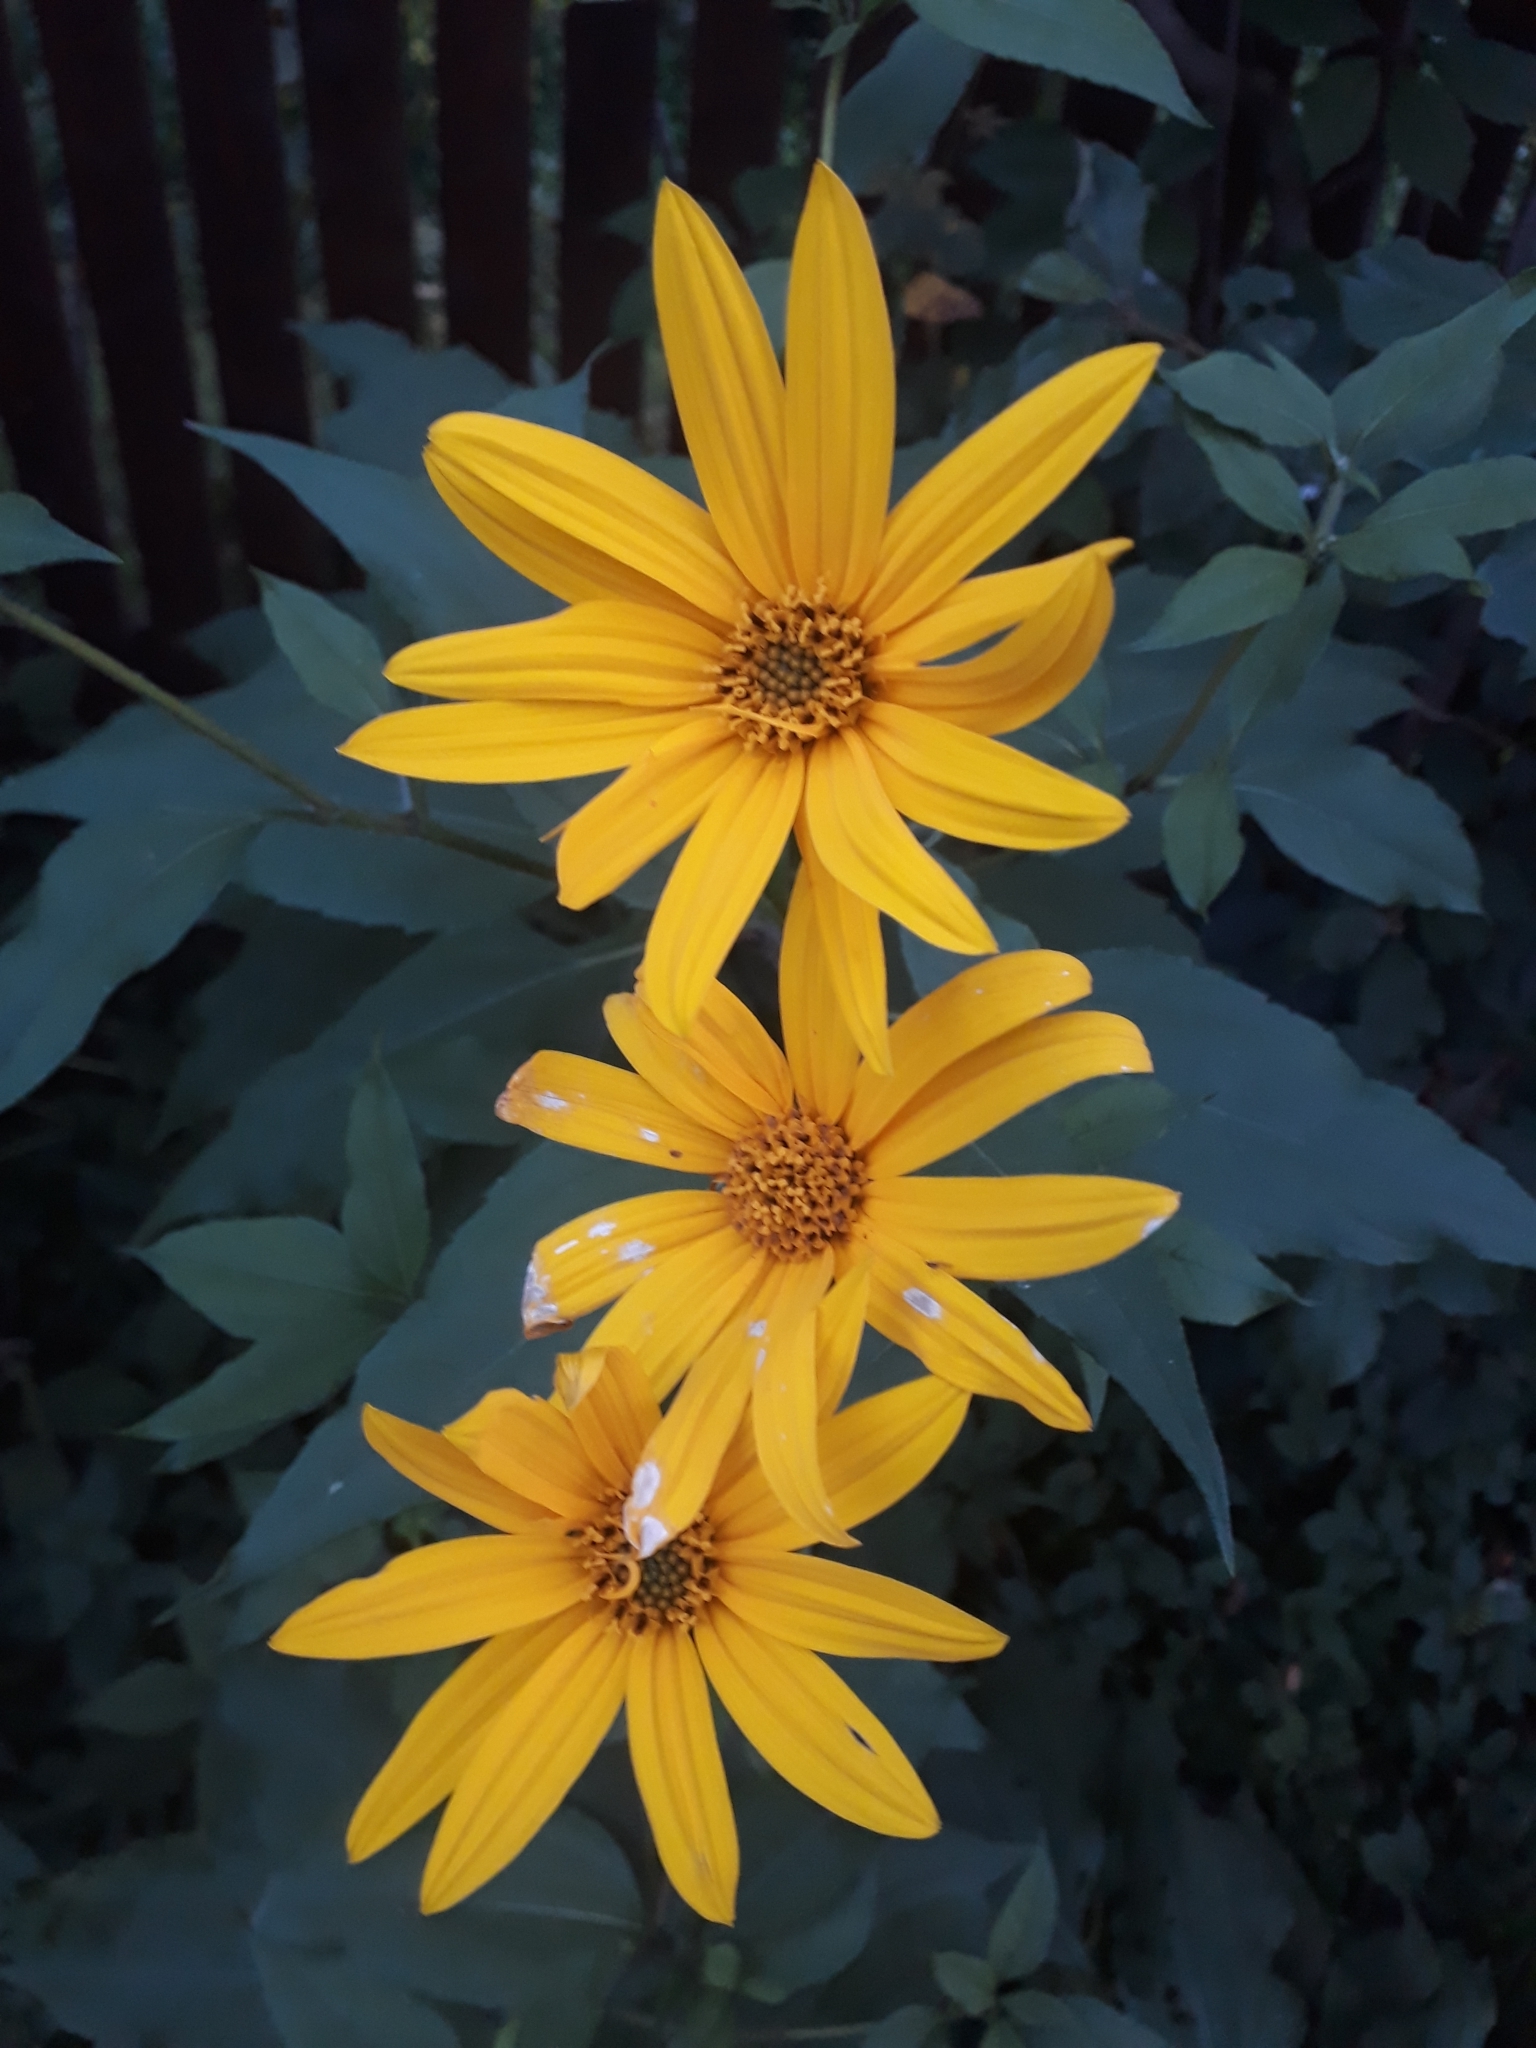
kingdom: Plantae
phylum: Tracheophyta
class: Magnoliopsida
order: Asterales
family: Asteraceae
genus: Helianthus
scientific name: Helianthus tuberosus
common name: Jerusalem artichoke
